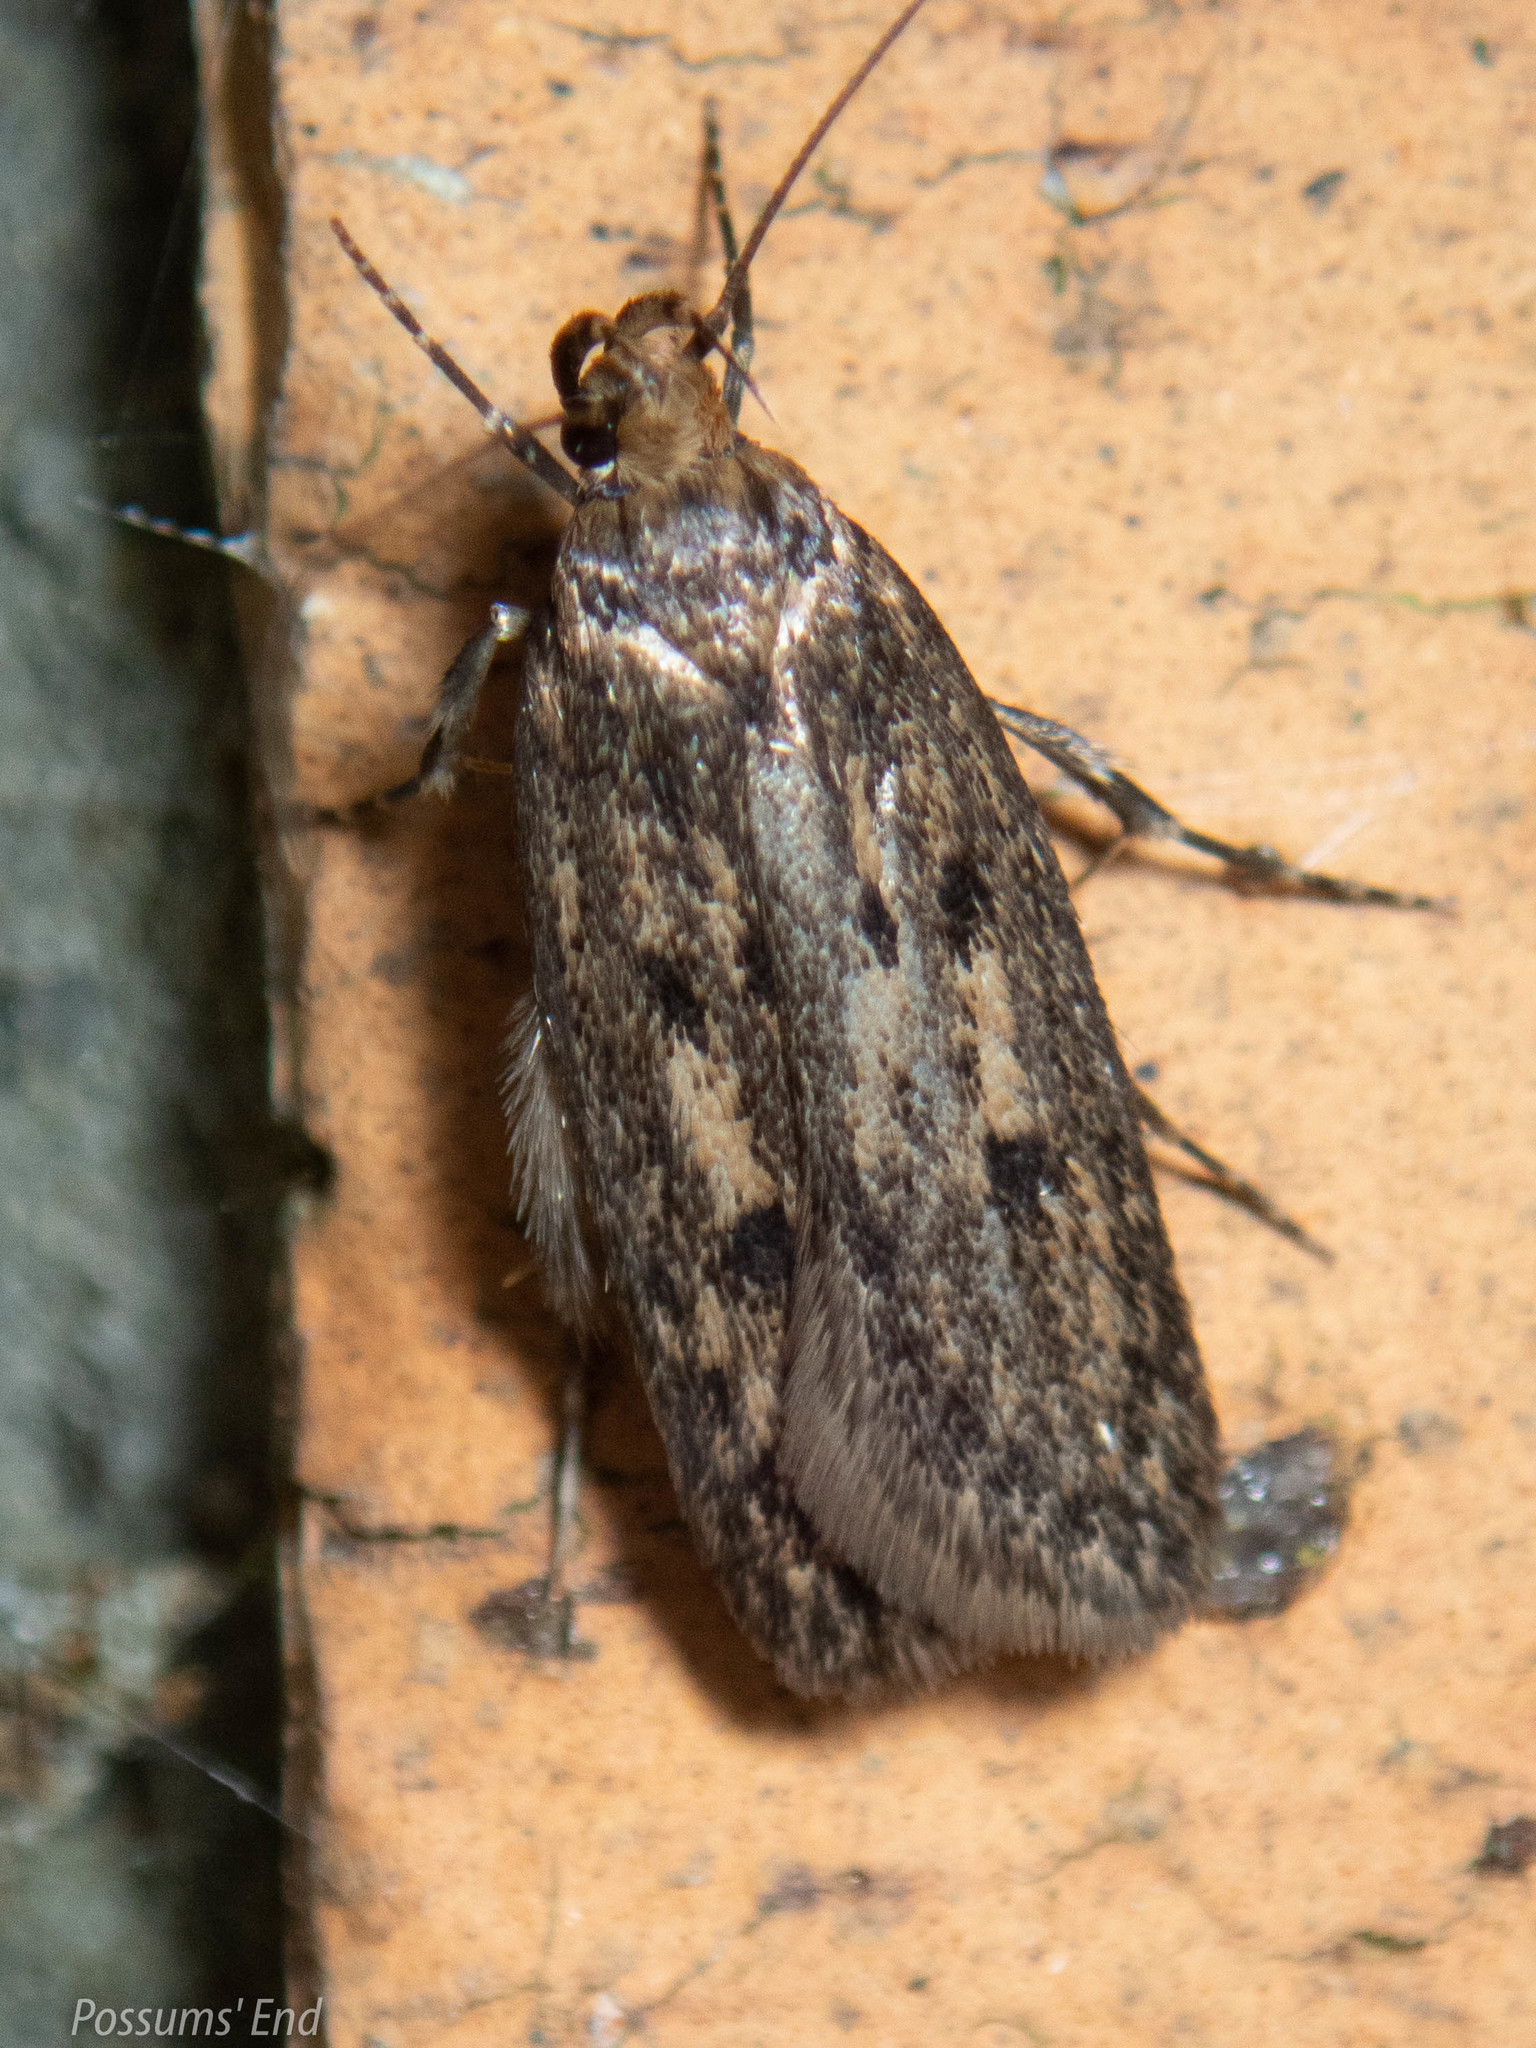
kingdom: Animalia
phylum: Arthropoda
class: Insecta
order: Lepidoptera
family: Oecophoridae
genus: Hofmannophila
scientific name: Hofmannophila pseudospretella
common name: Brown house moth
